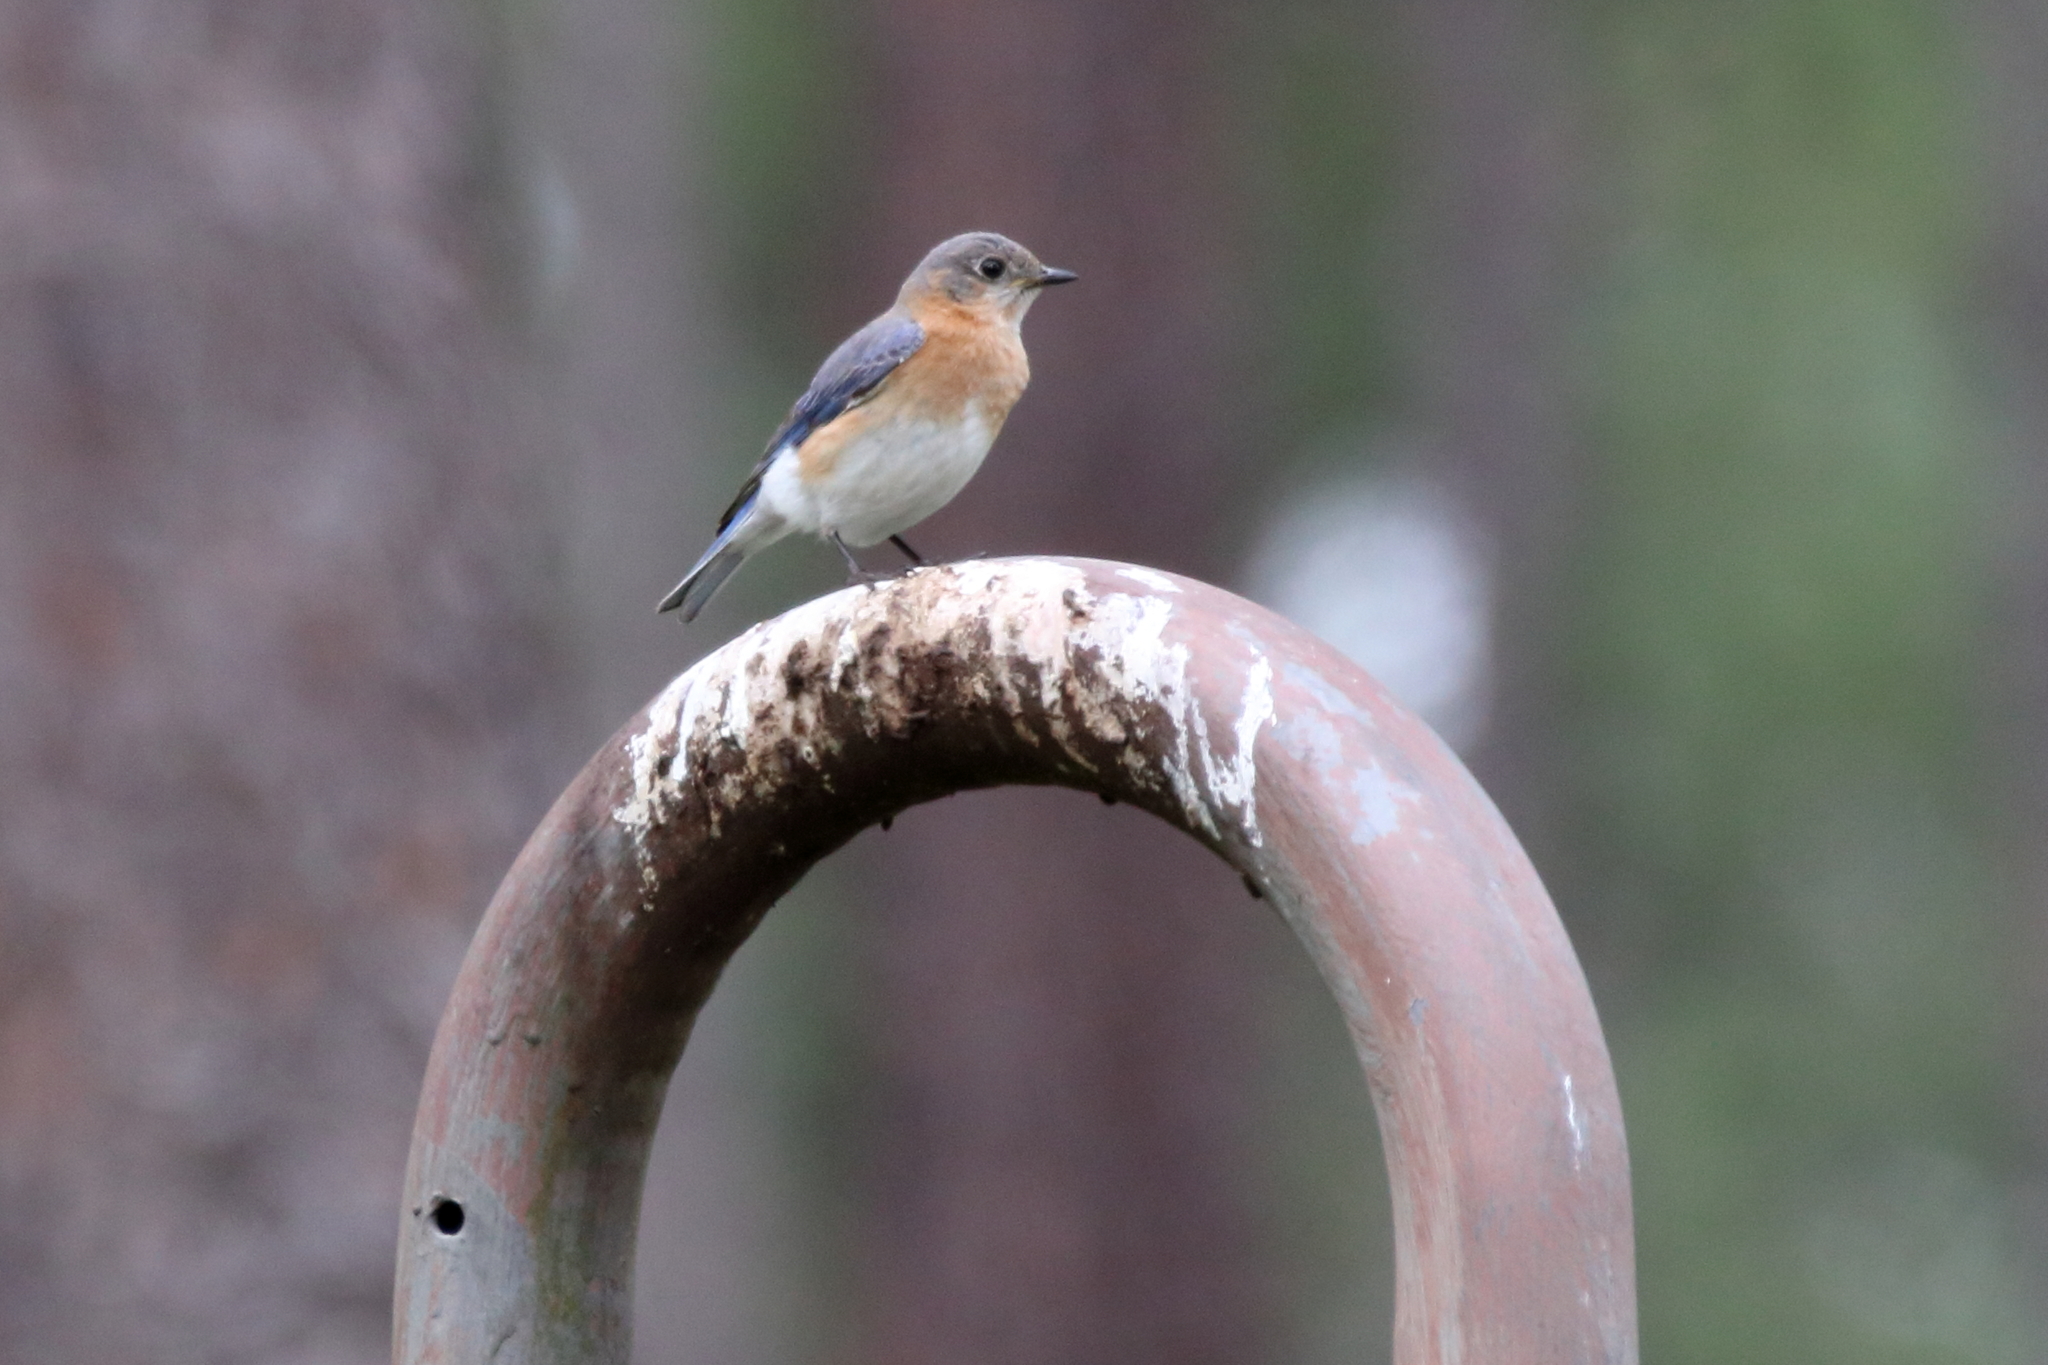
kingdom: Animalia
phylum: Chordata
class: Aves
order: Passeriformes
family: Turdidae
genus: Sialia
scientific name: Sialia sialis
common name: Eastern bluebird
